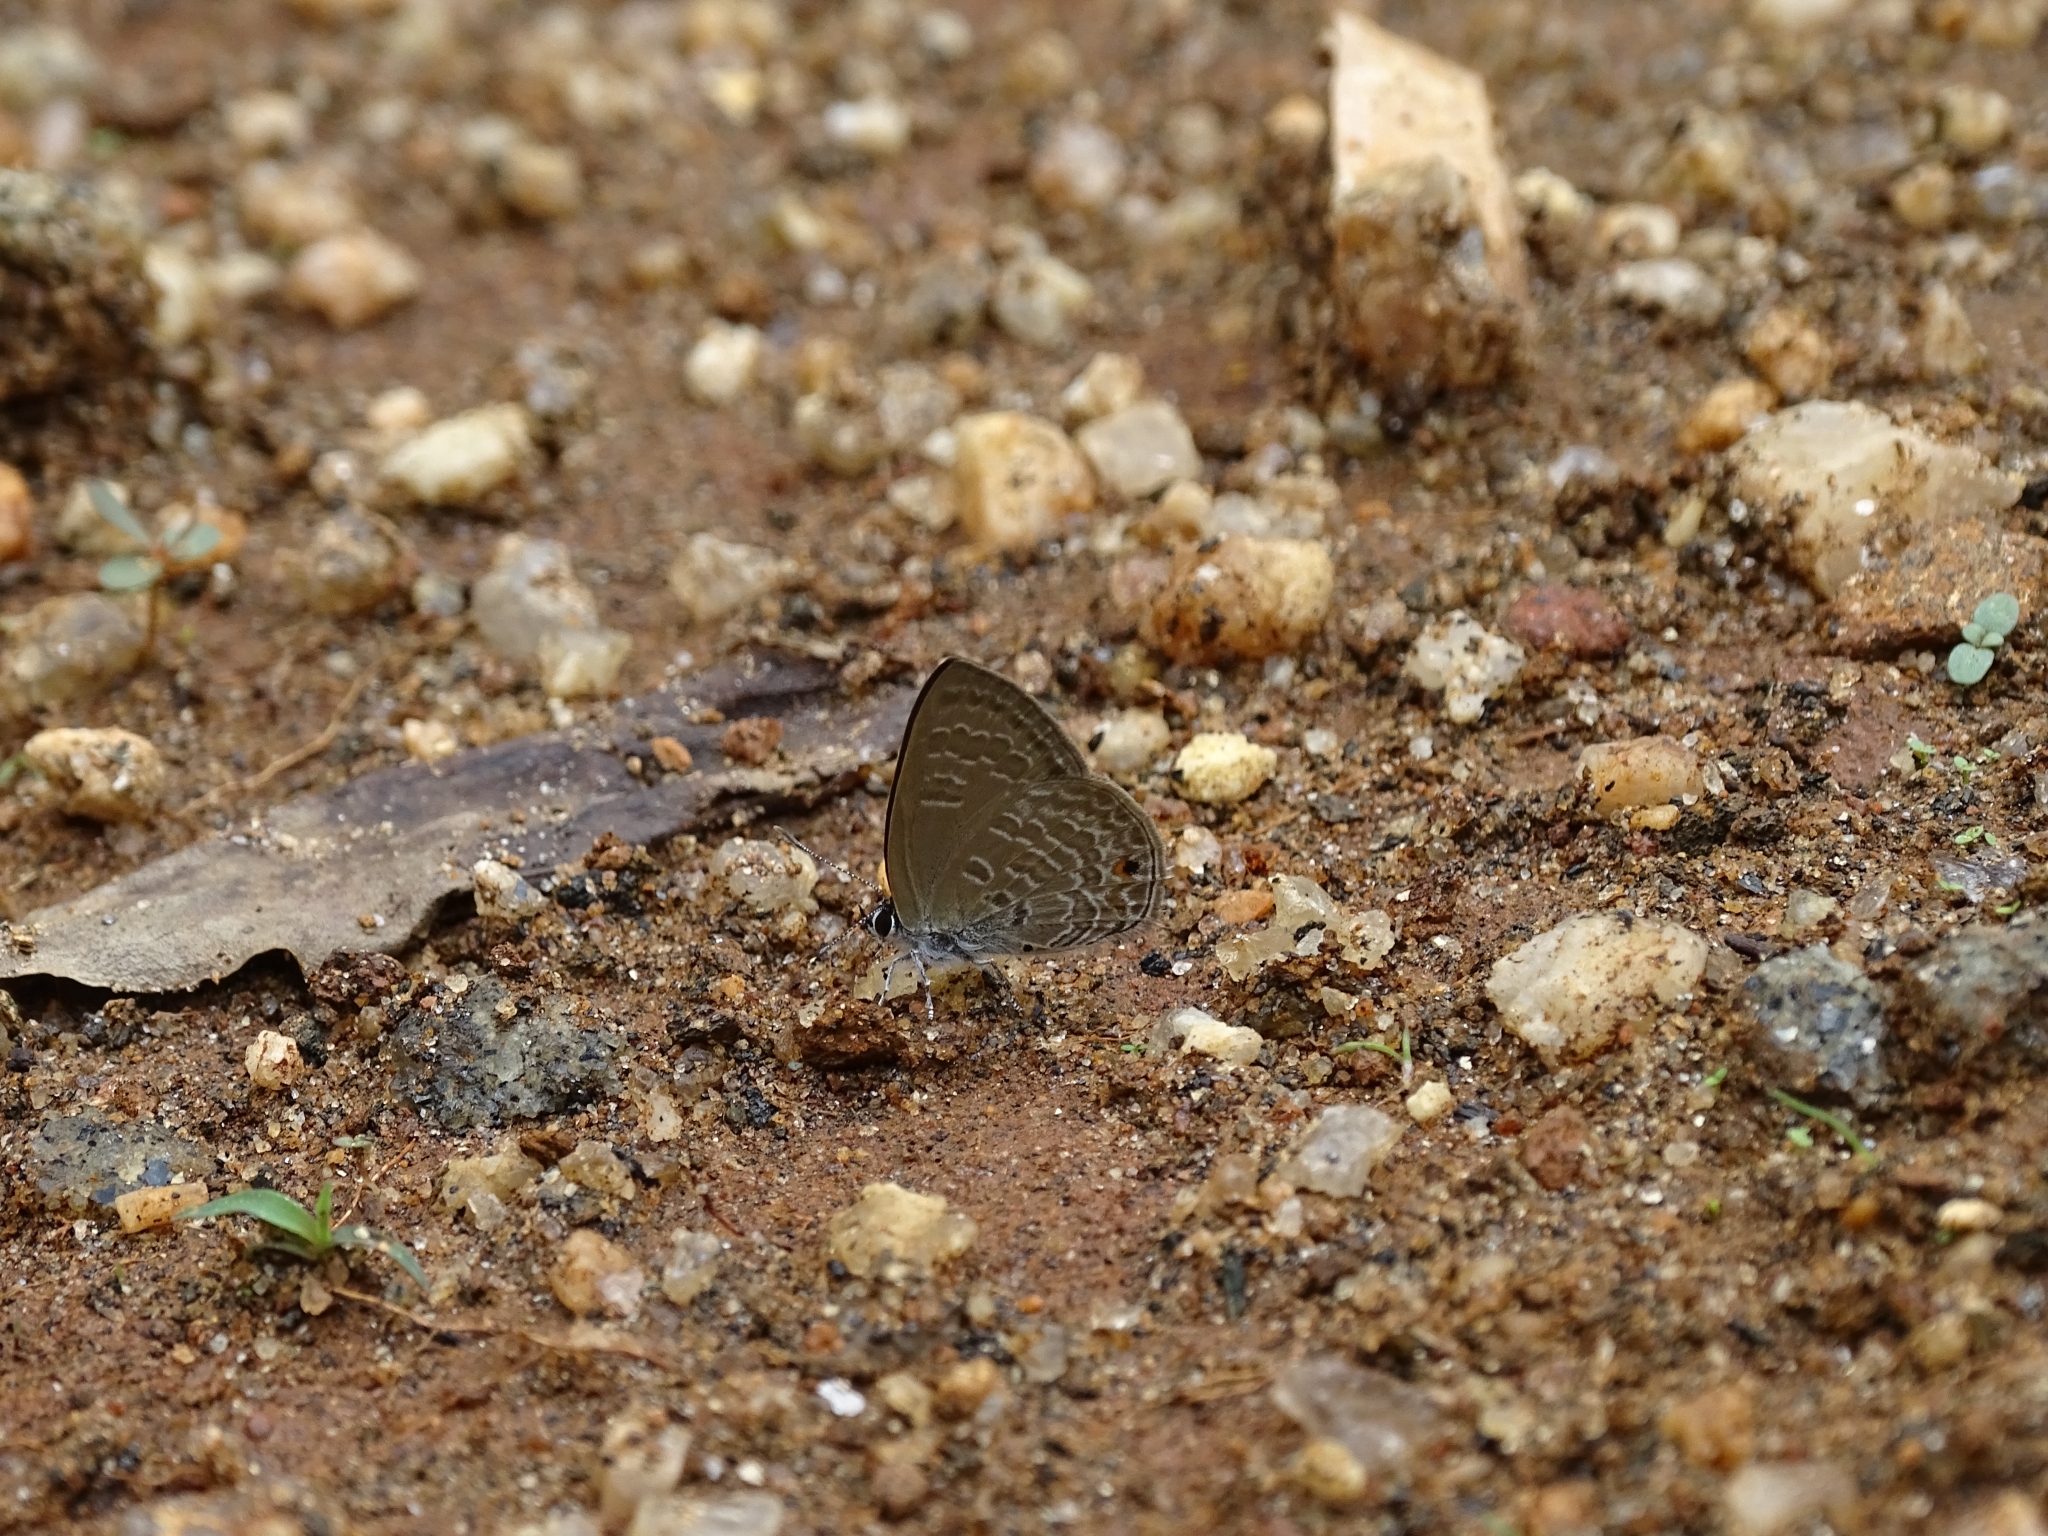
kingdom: Animalia
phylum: Arthropoda
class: Insecta
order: Lepidoptera
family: Lycaenidae
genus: Anthene
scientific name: Anthene emolus
